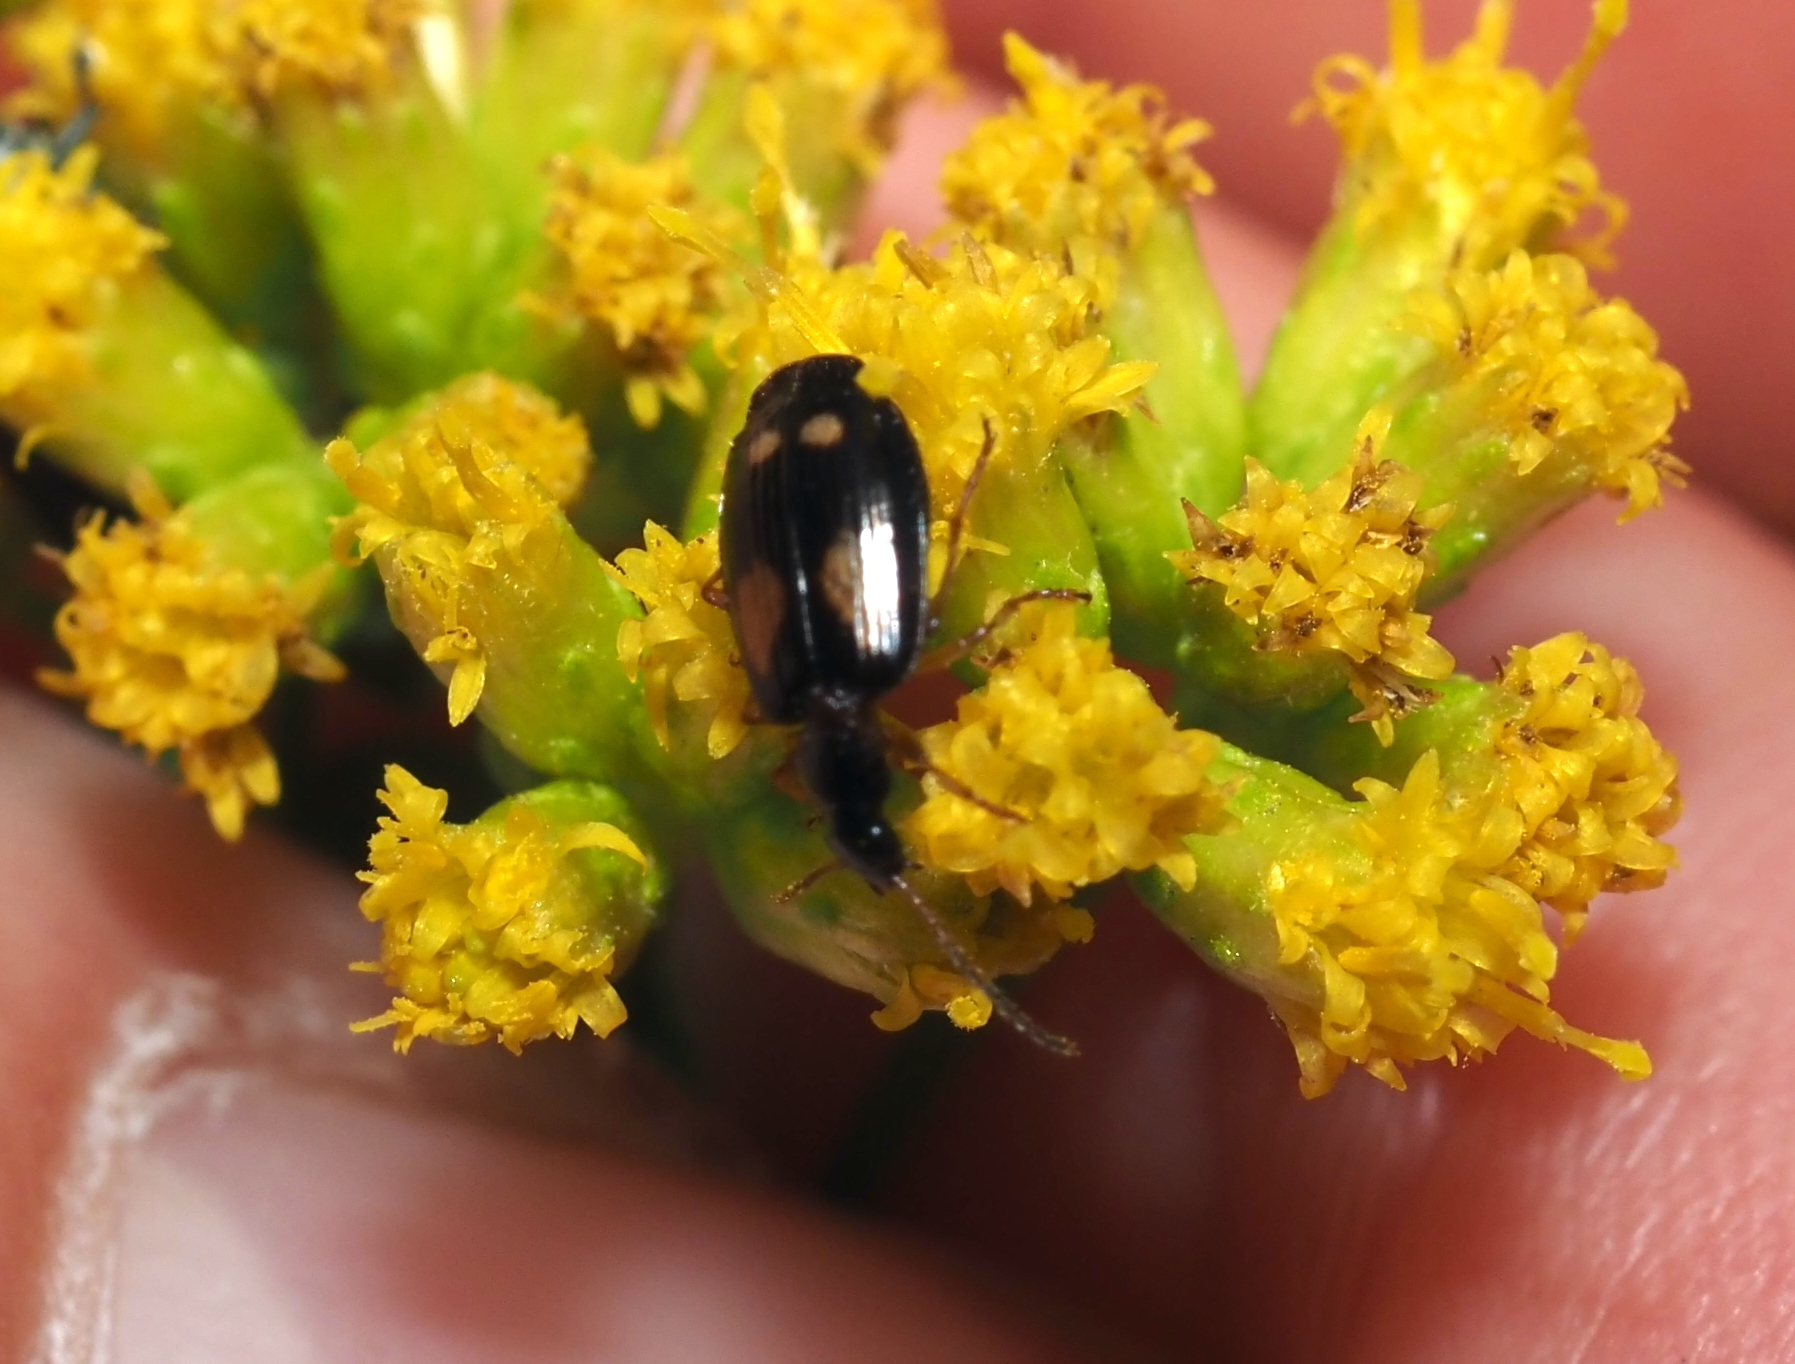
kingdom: Animalia
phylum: Arthropoda
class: Insecta
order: Coleoptera
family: Carabidae
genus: Lebia
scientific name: Lebia ornata
